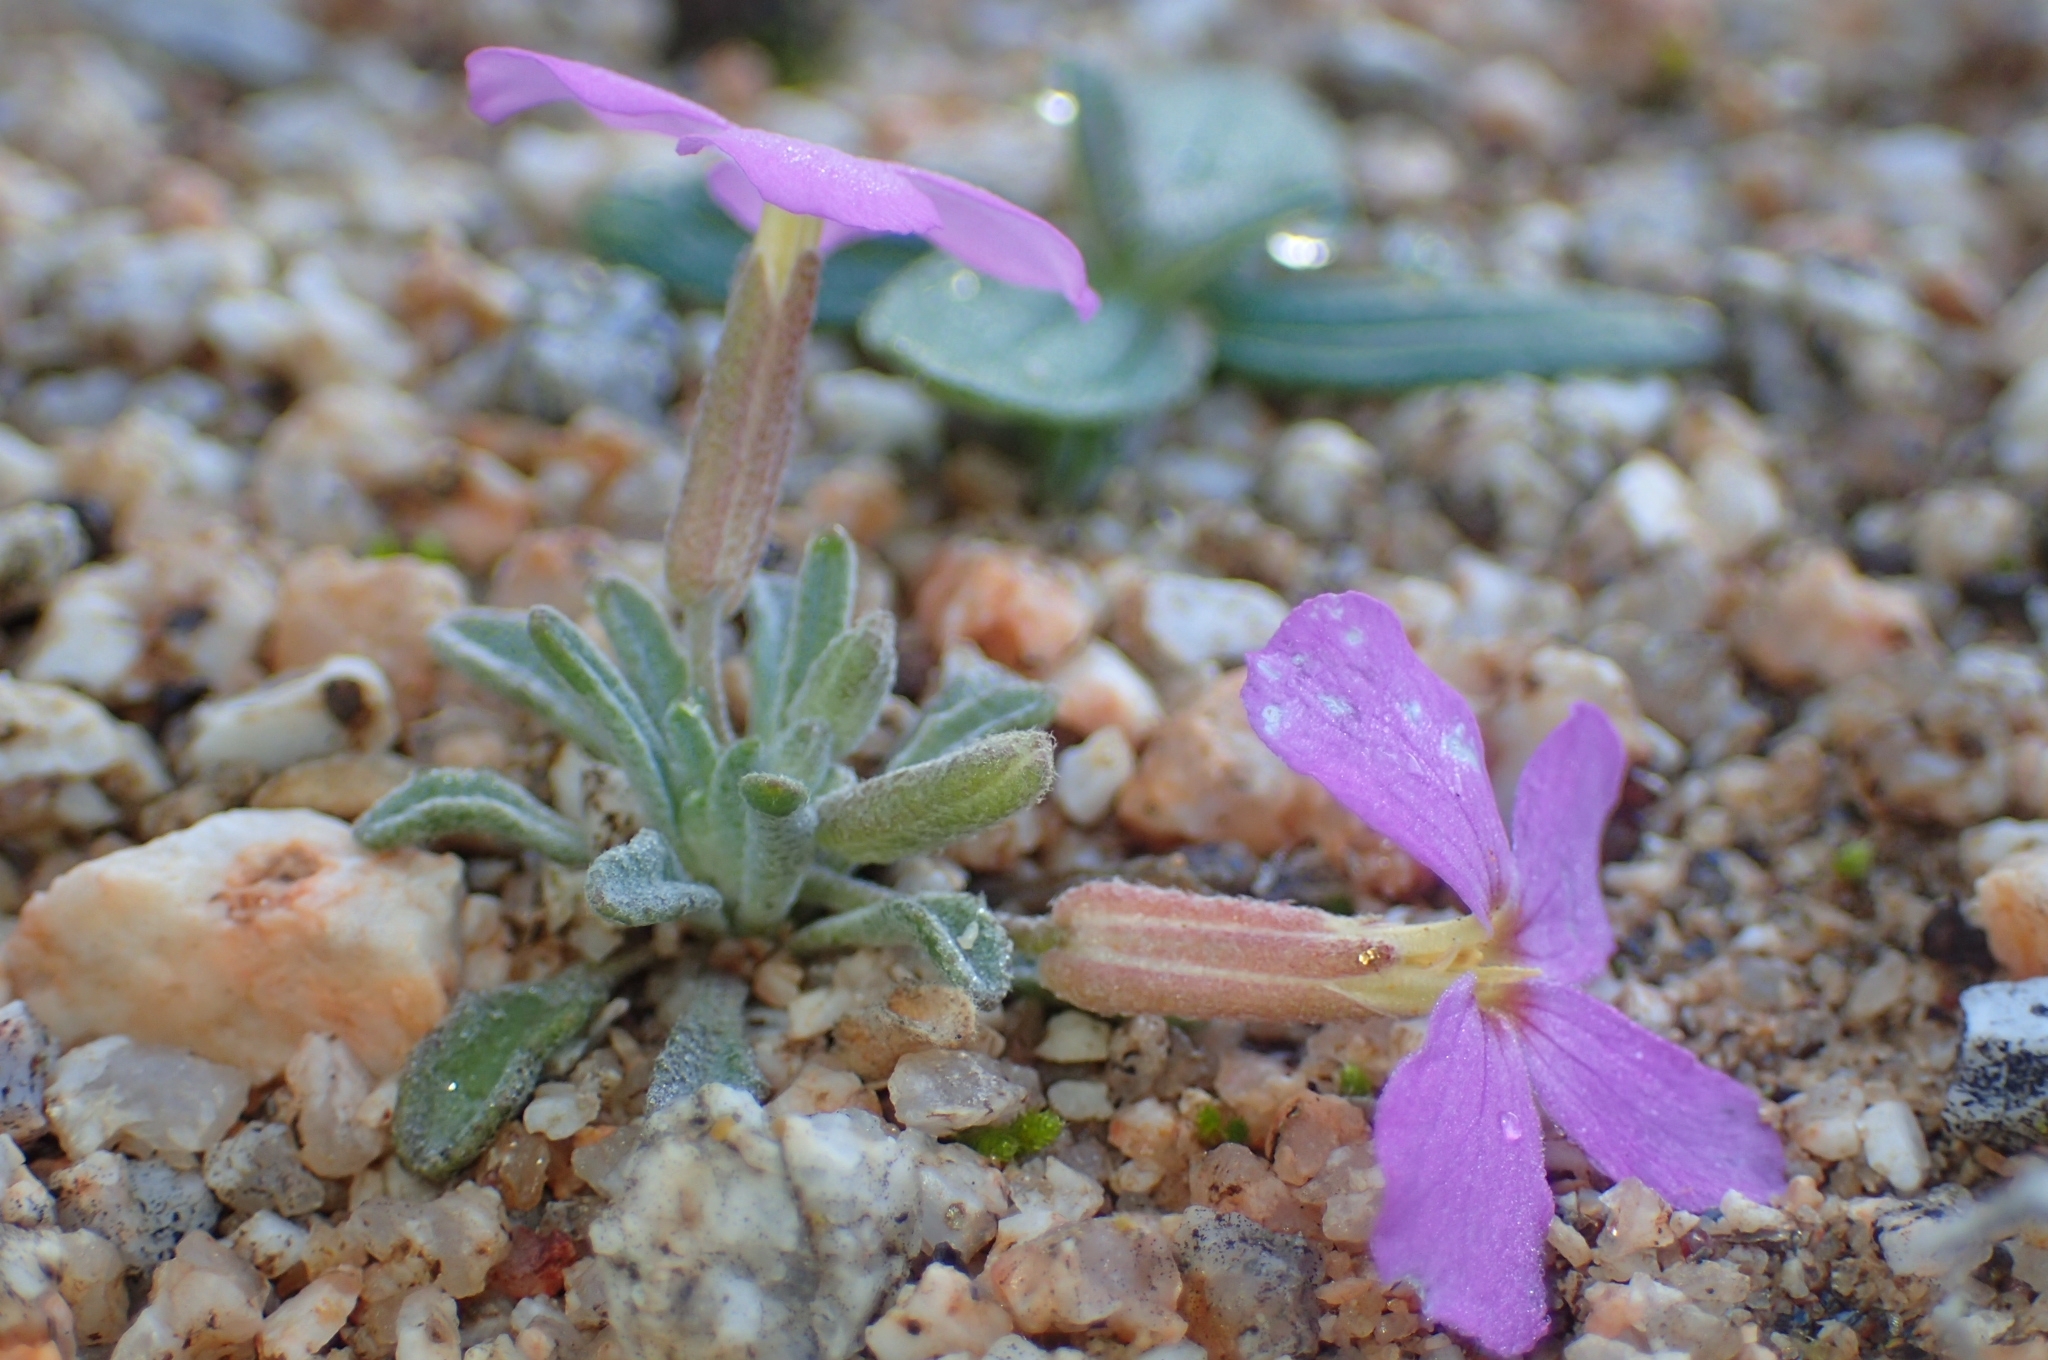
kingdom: Plantae
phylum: Tracheophyta
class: Magnoliopsida
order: Brassicales
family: Brassicaceae
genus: Marcuskochia
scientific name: Marcuskochia triloba
